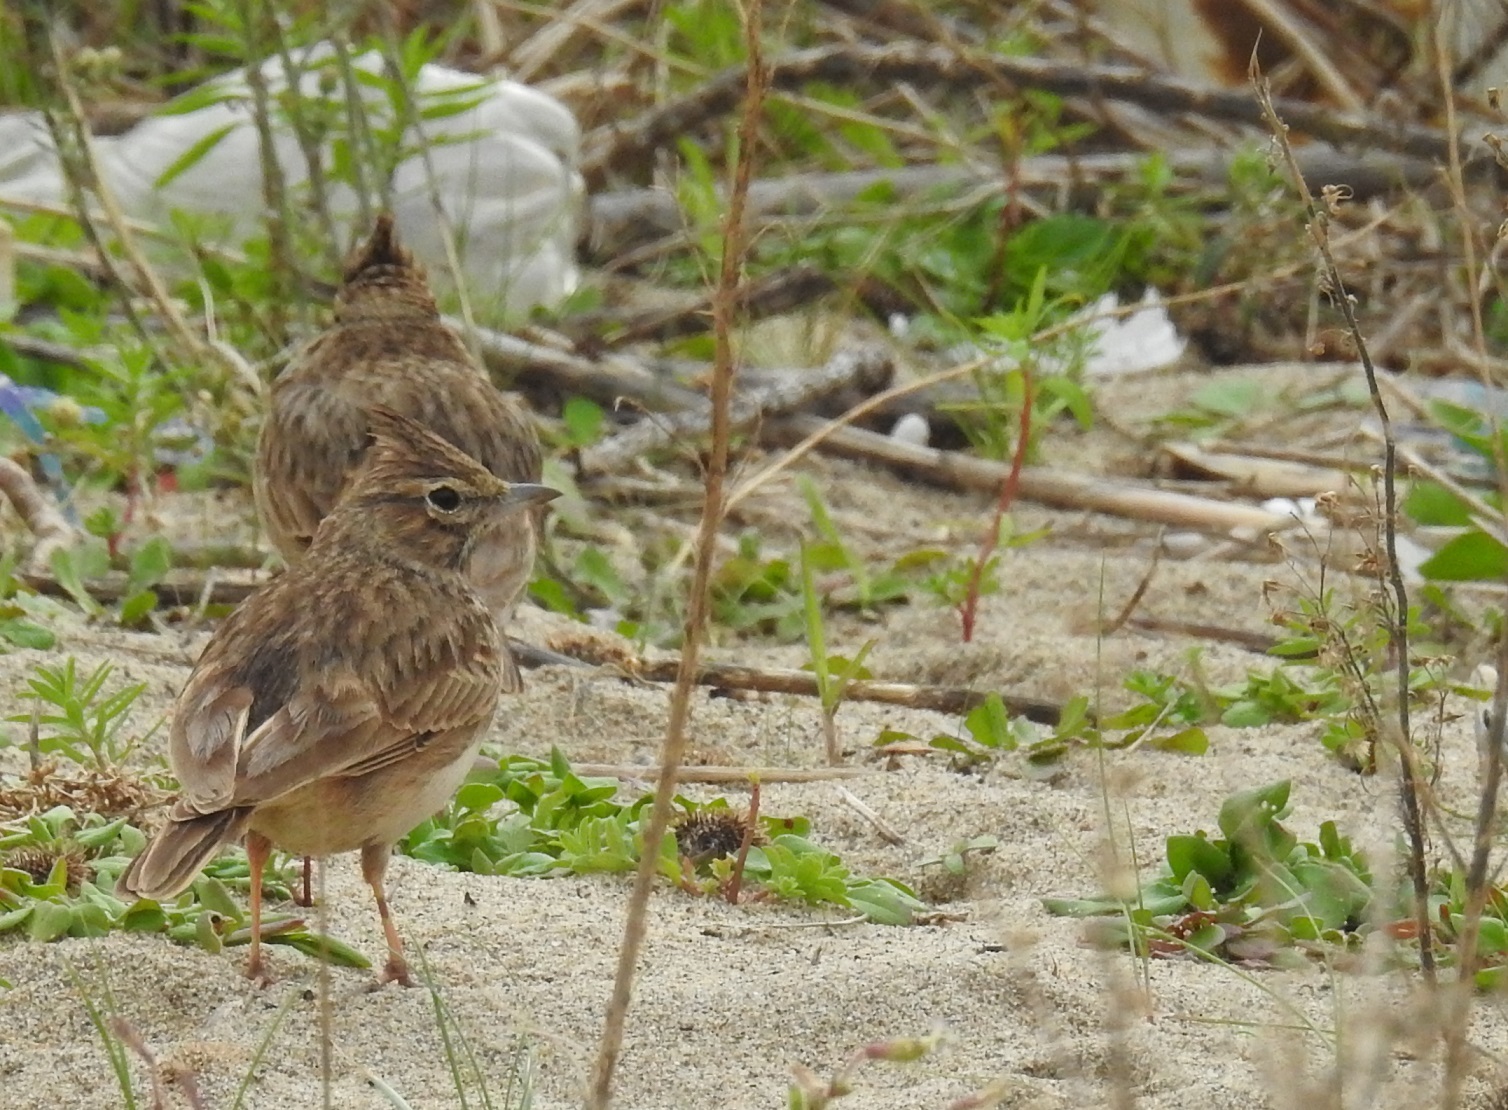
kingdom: Animalia
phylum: Chordata
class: Aves
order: Passeriformes
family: Alaudidae
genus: Galerida
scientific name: Galerida theklae
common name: Thekla lark
